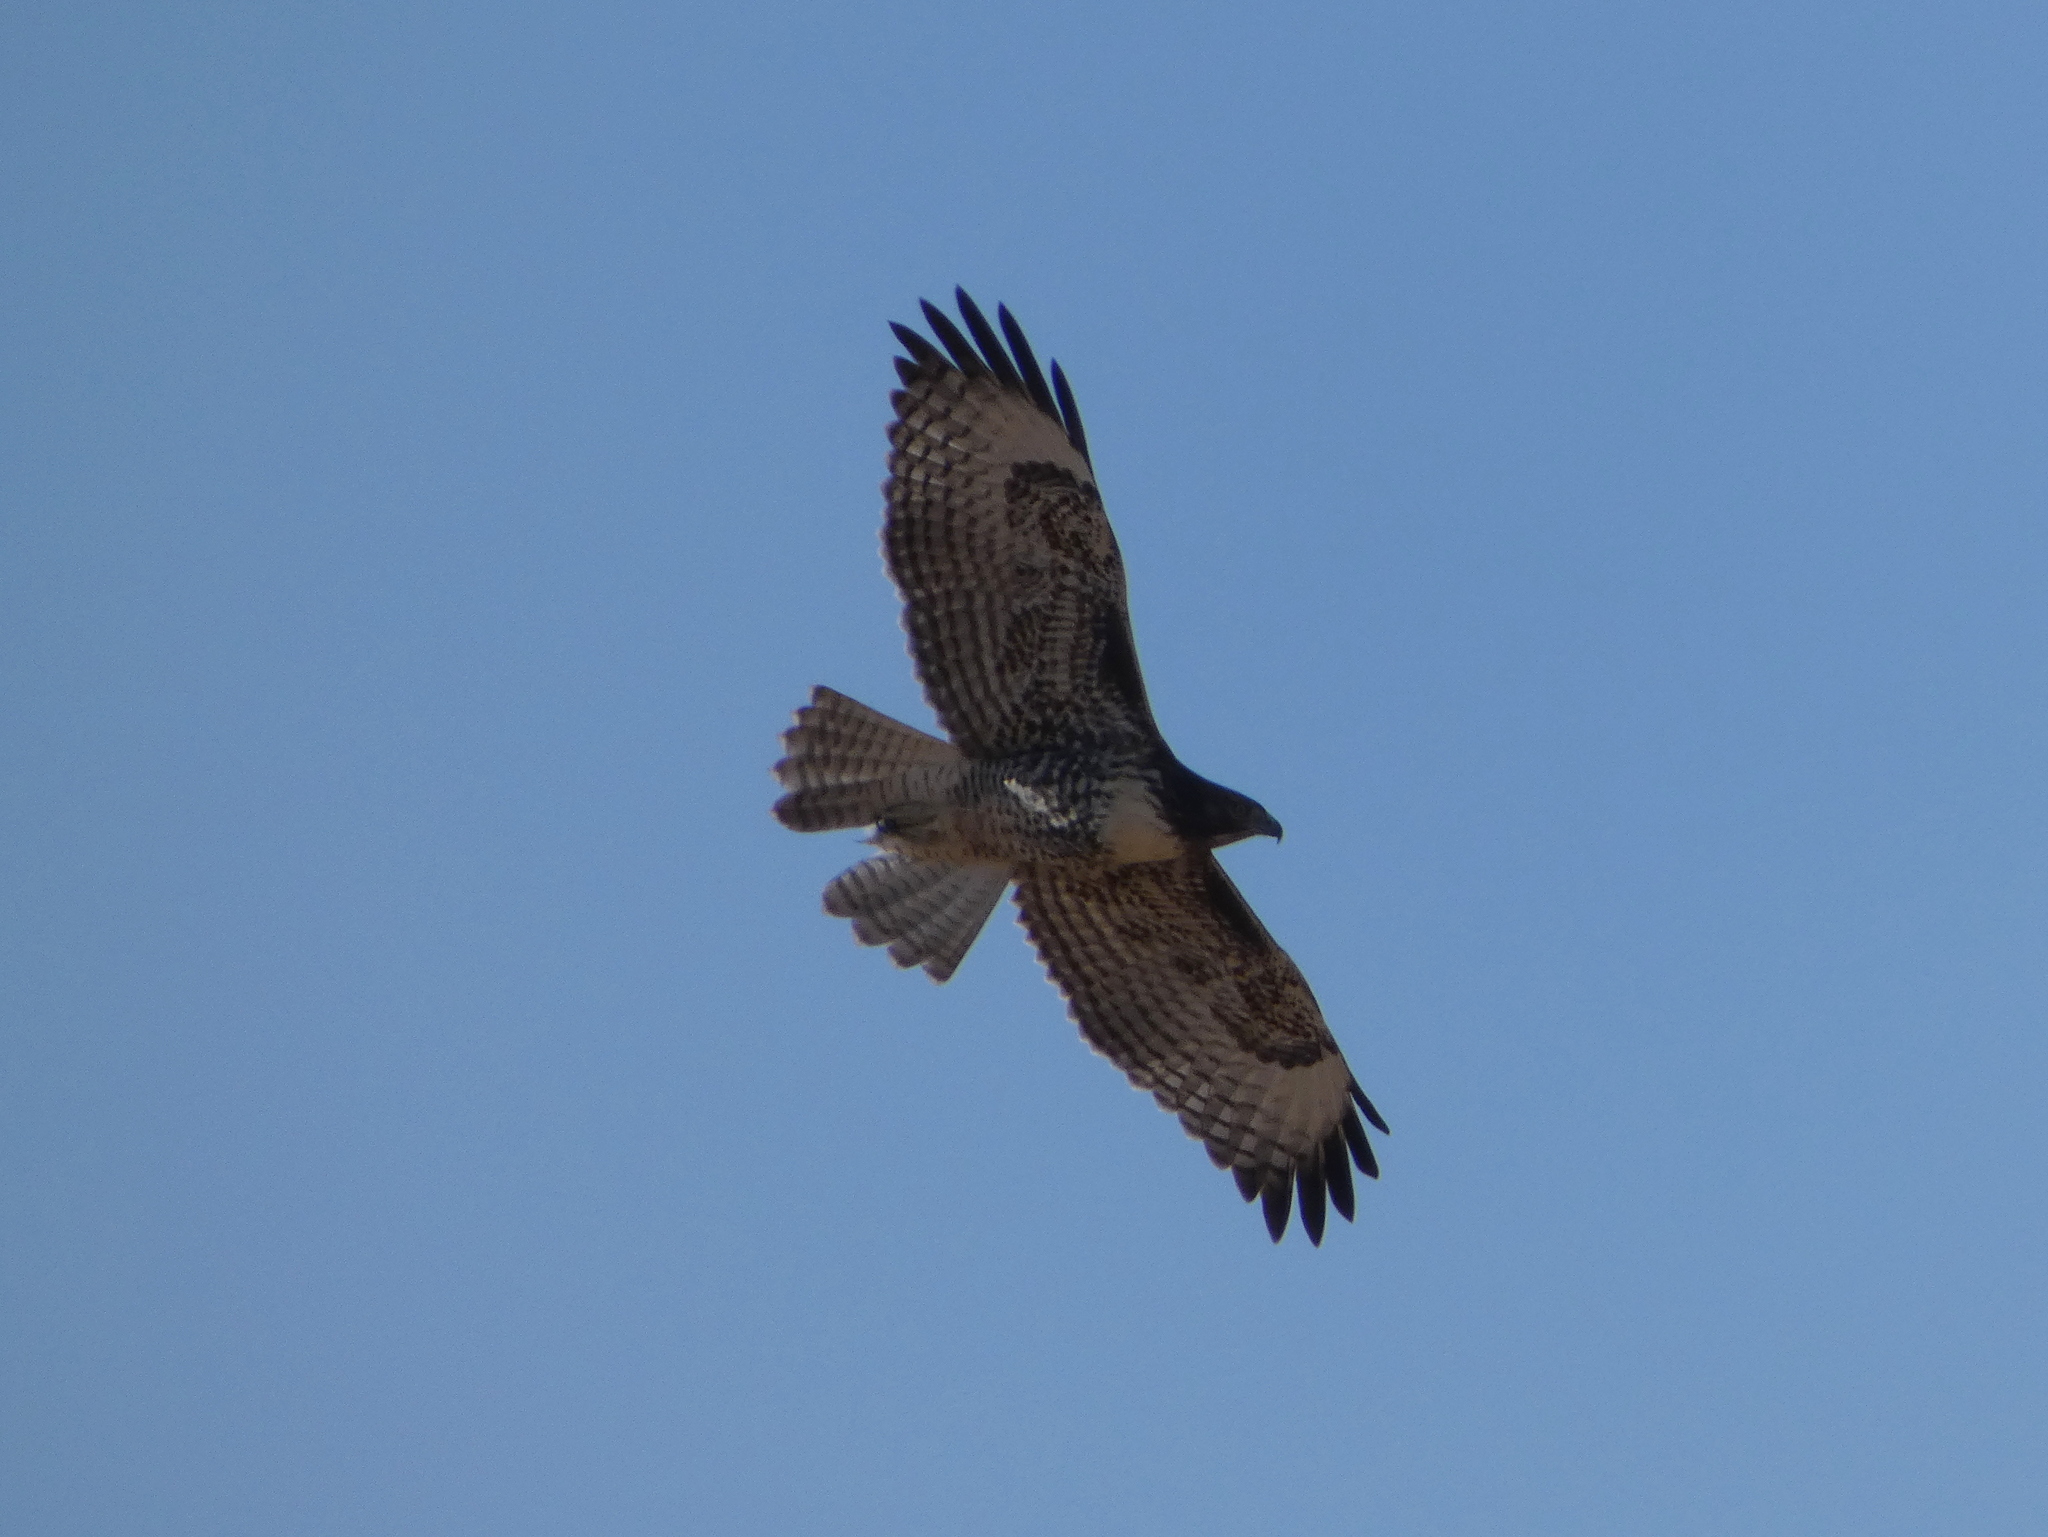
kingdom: Animalia
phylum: Chordata
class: Aves
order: Accipitriformes
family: Accipitridae
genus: Buteo
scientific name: Buteo jamaicensis
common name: Red-tailed hawk
